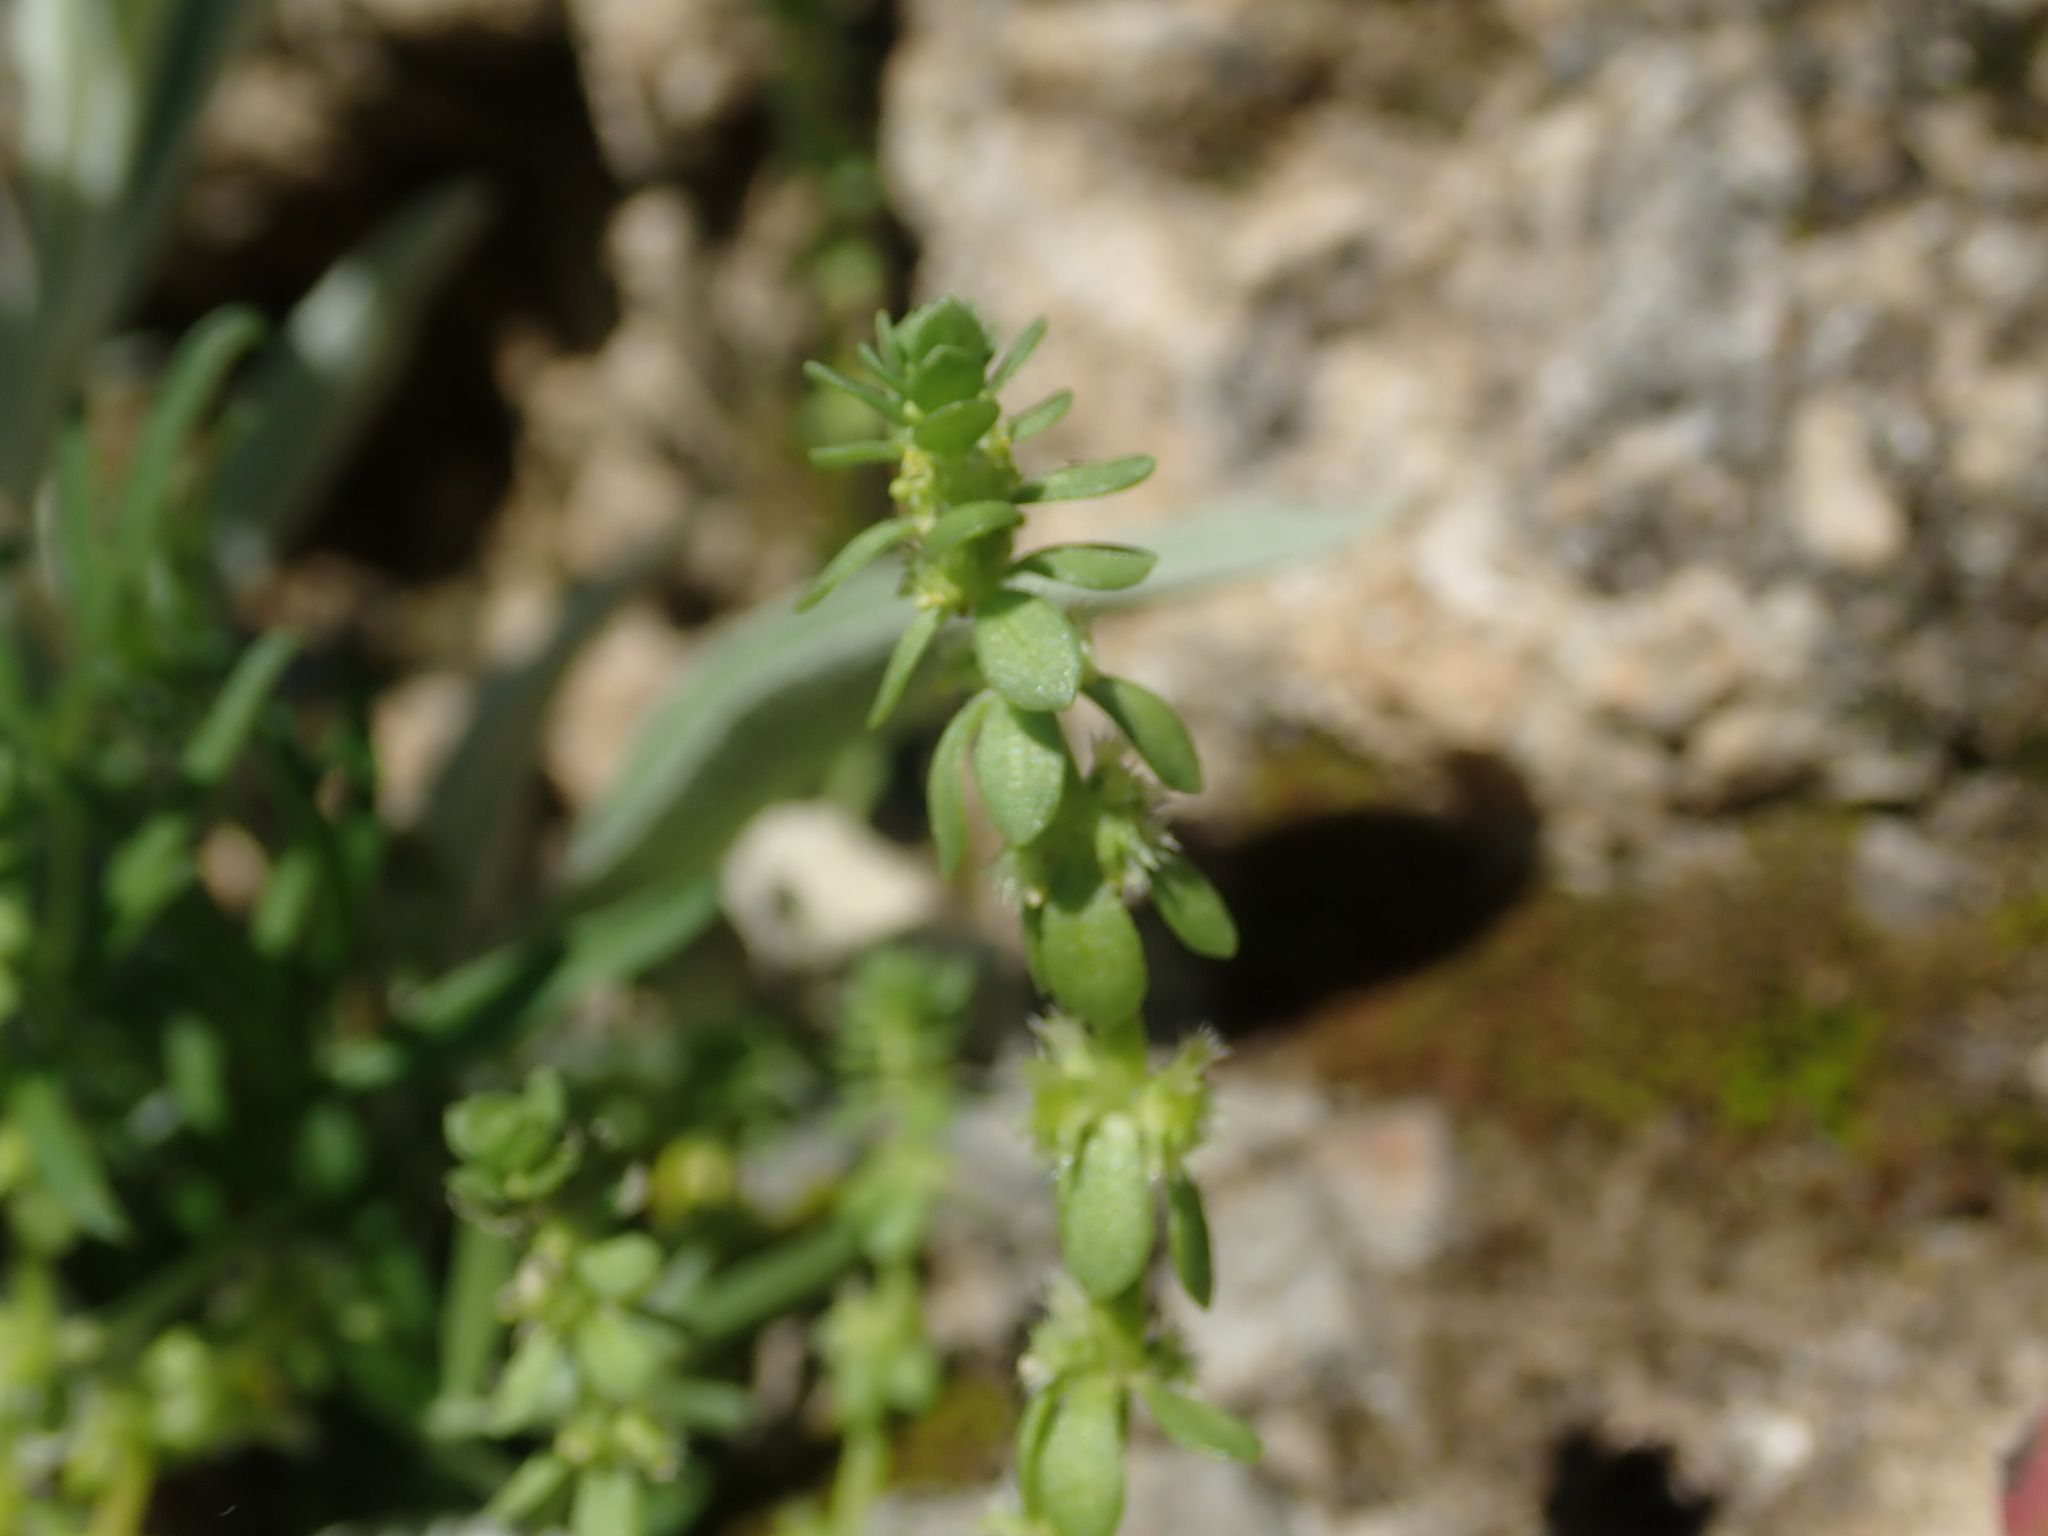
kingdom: Plantae
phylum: Tracheophyta
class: Magnoliopsida
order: Gentianales
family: Rubiaceae
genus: Valantia
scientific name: Valantia muralis
